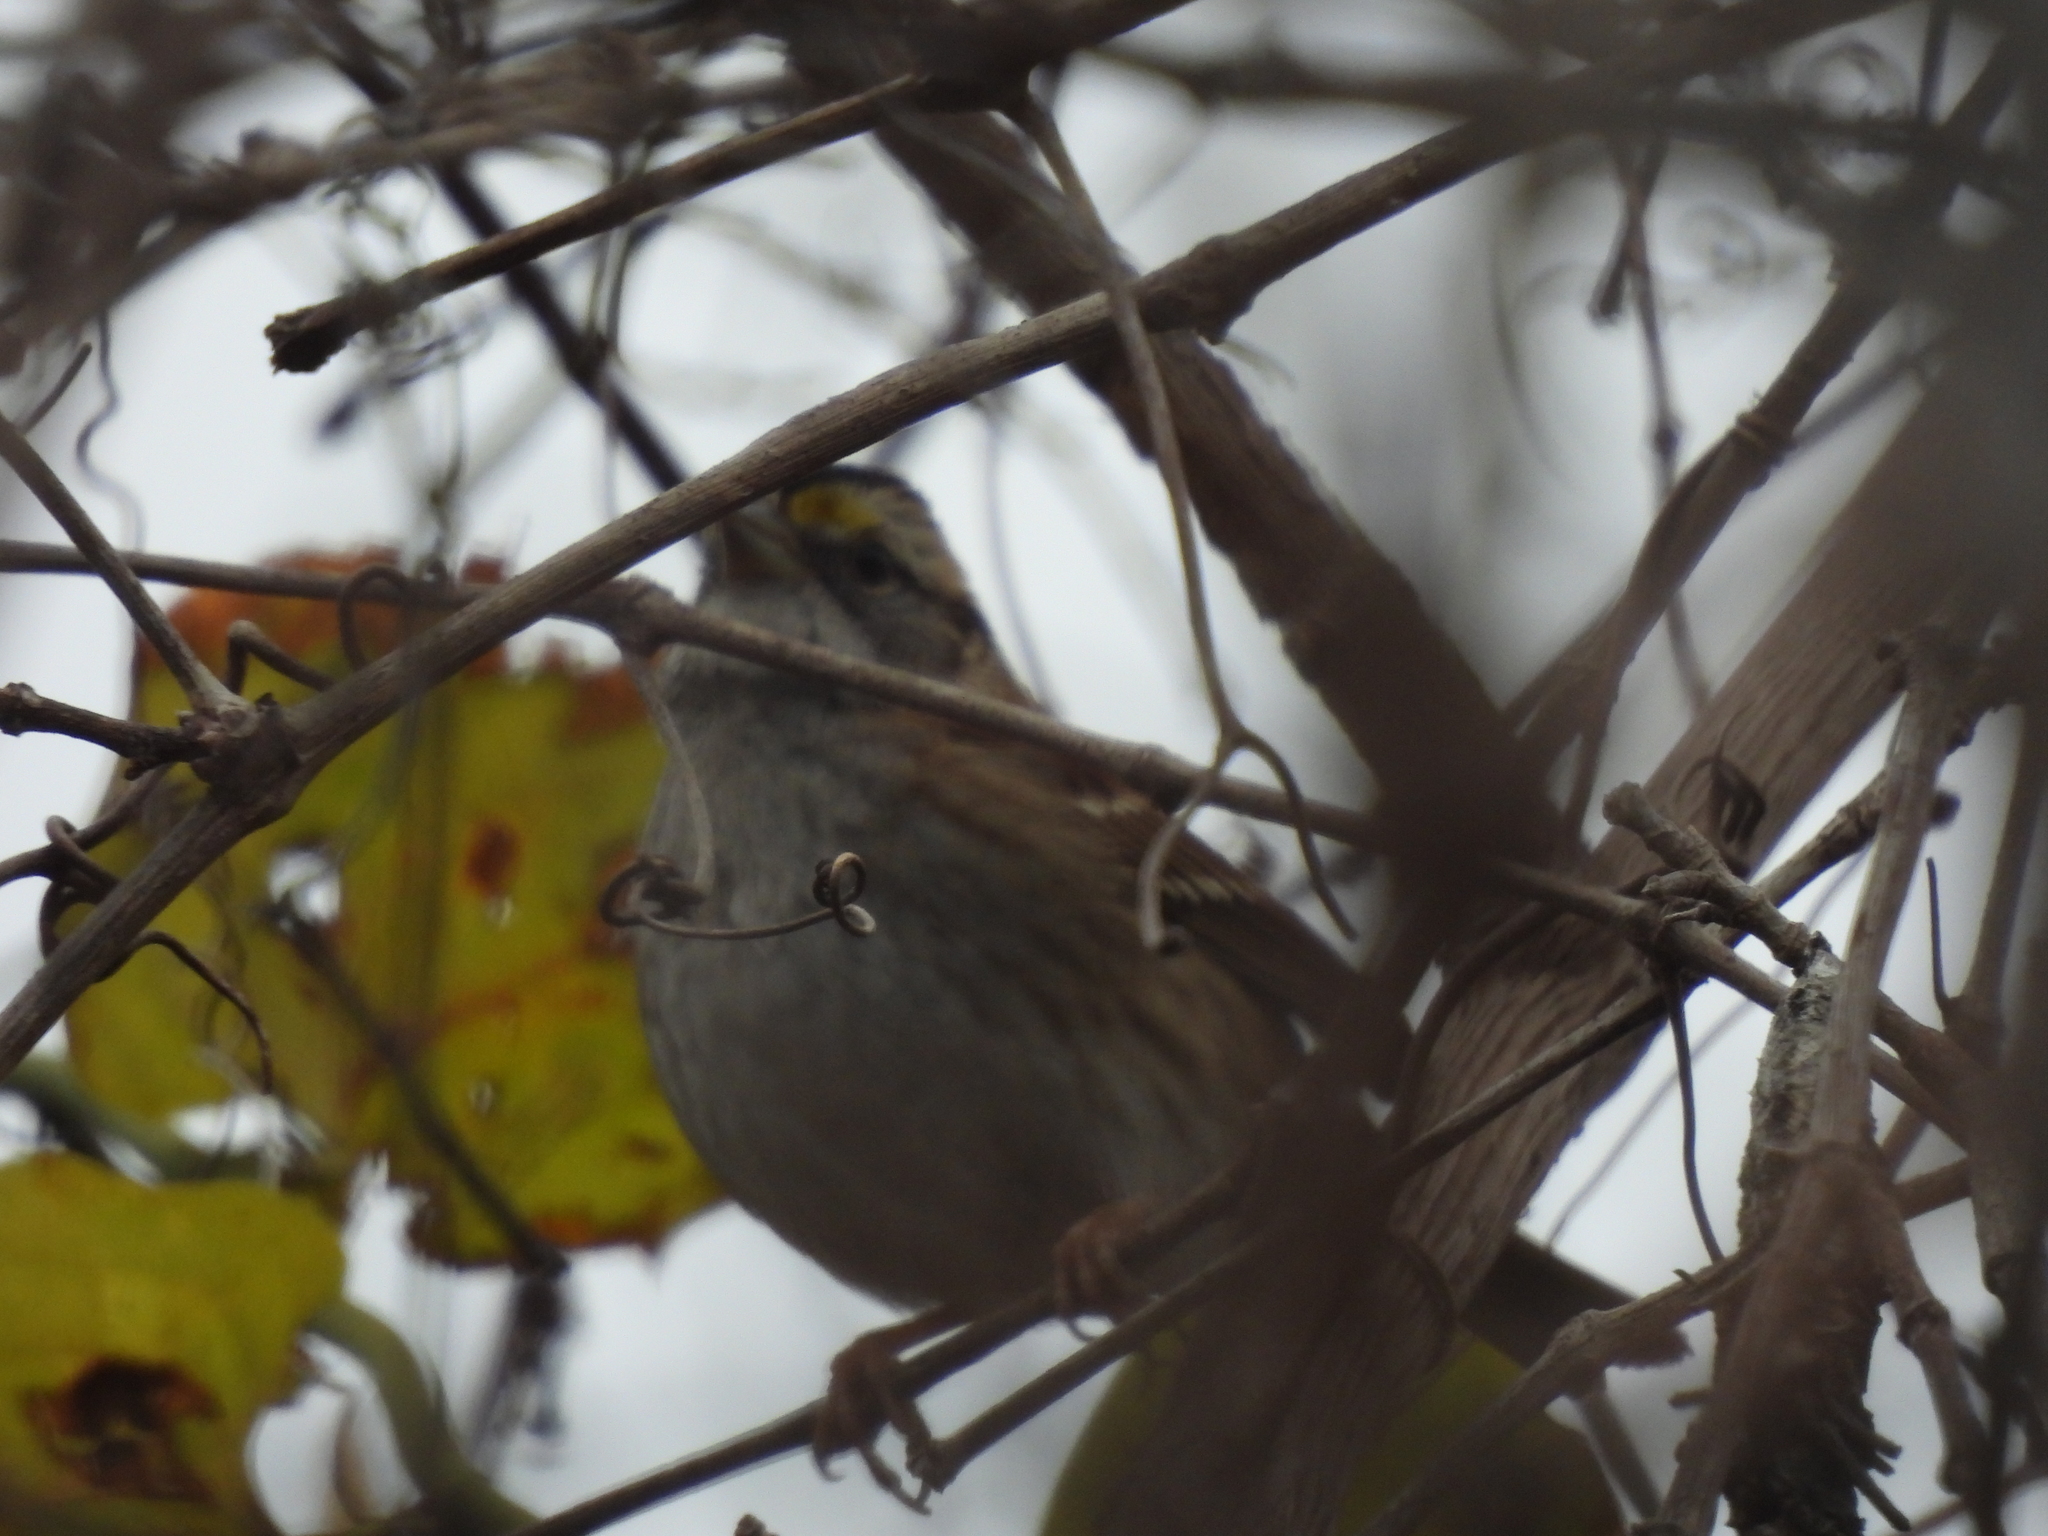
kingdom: Animalia
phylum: Chordata
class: Aves
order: Passeriformes
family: Passerellidae
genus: Zonotrichia
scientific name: Zonotrichia albicollis
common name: White-throated sparrow
